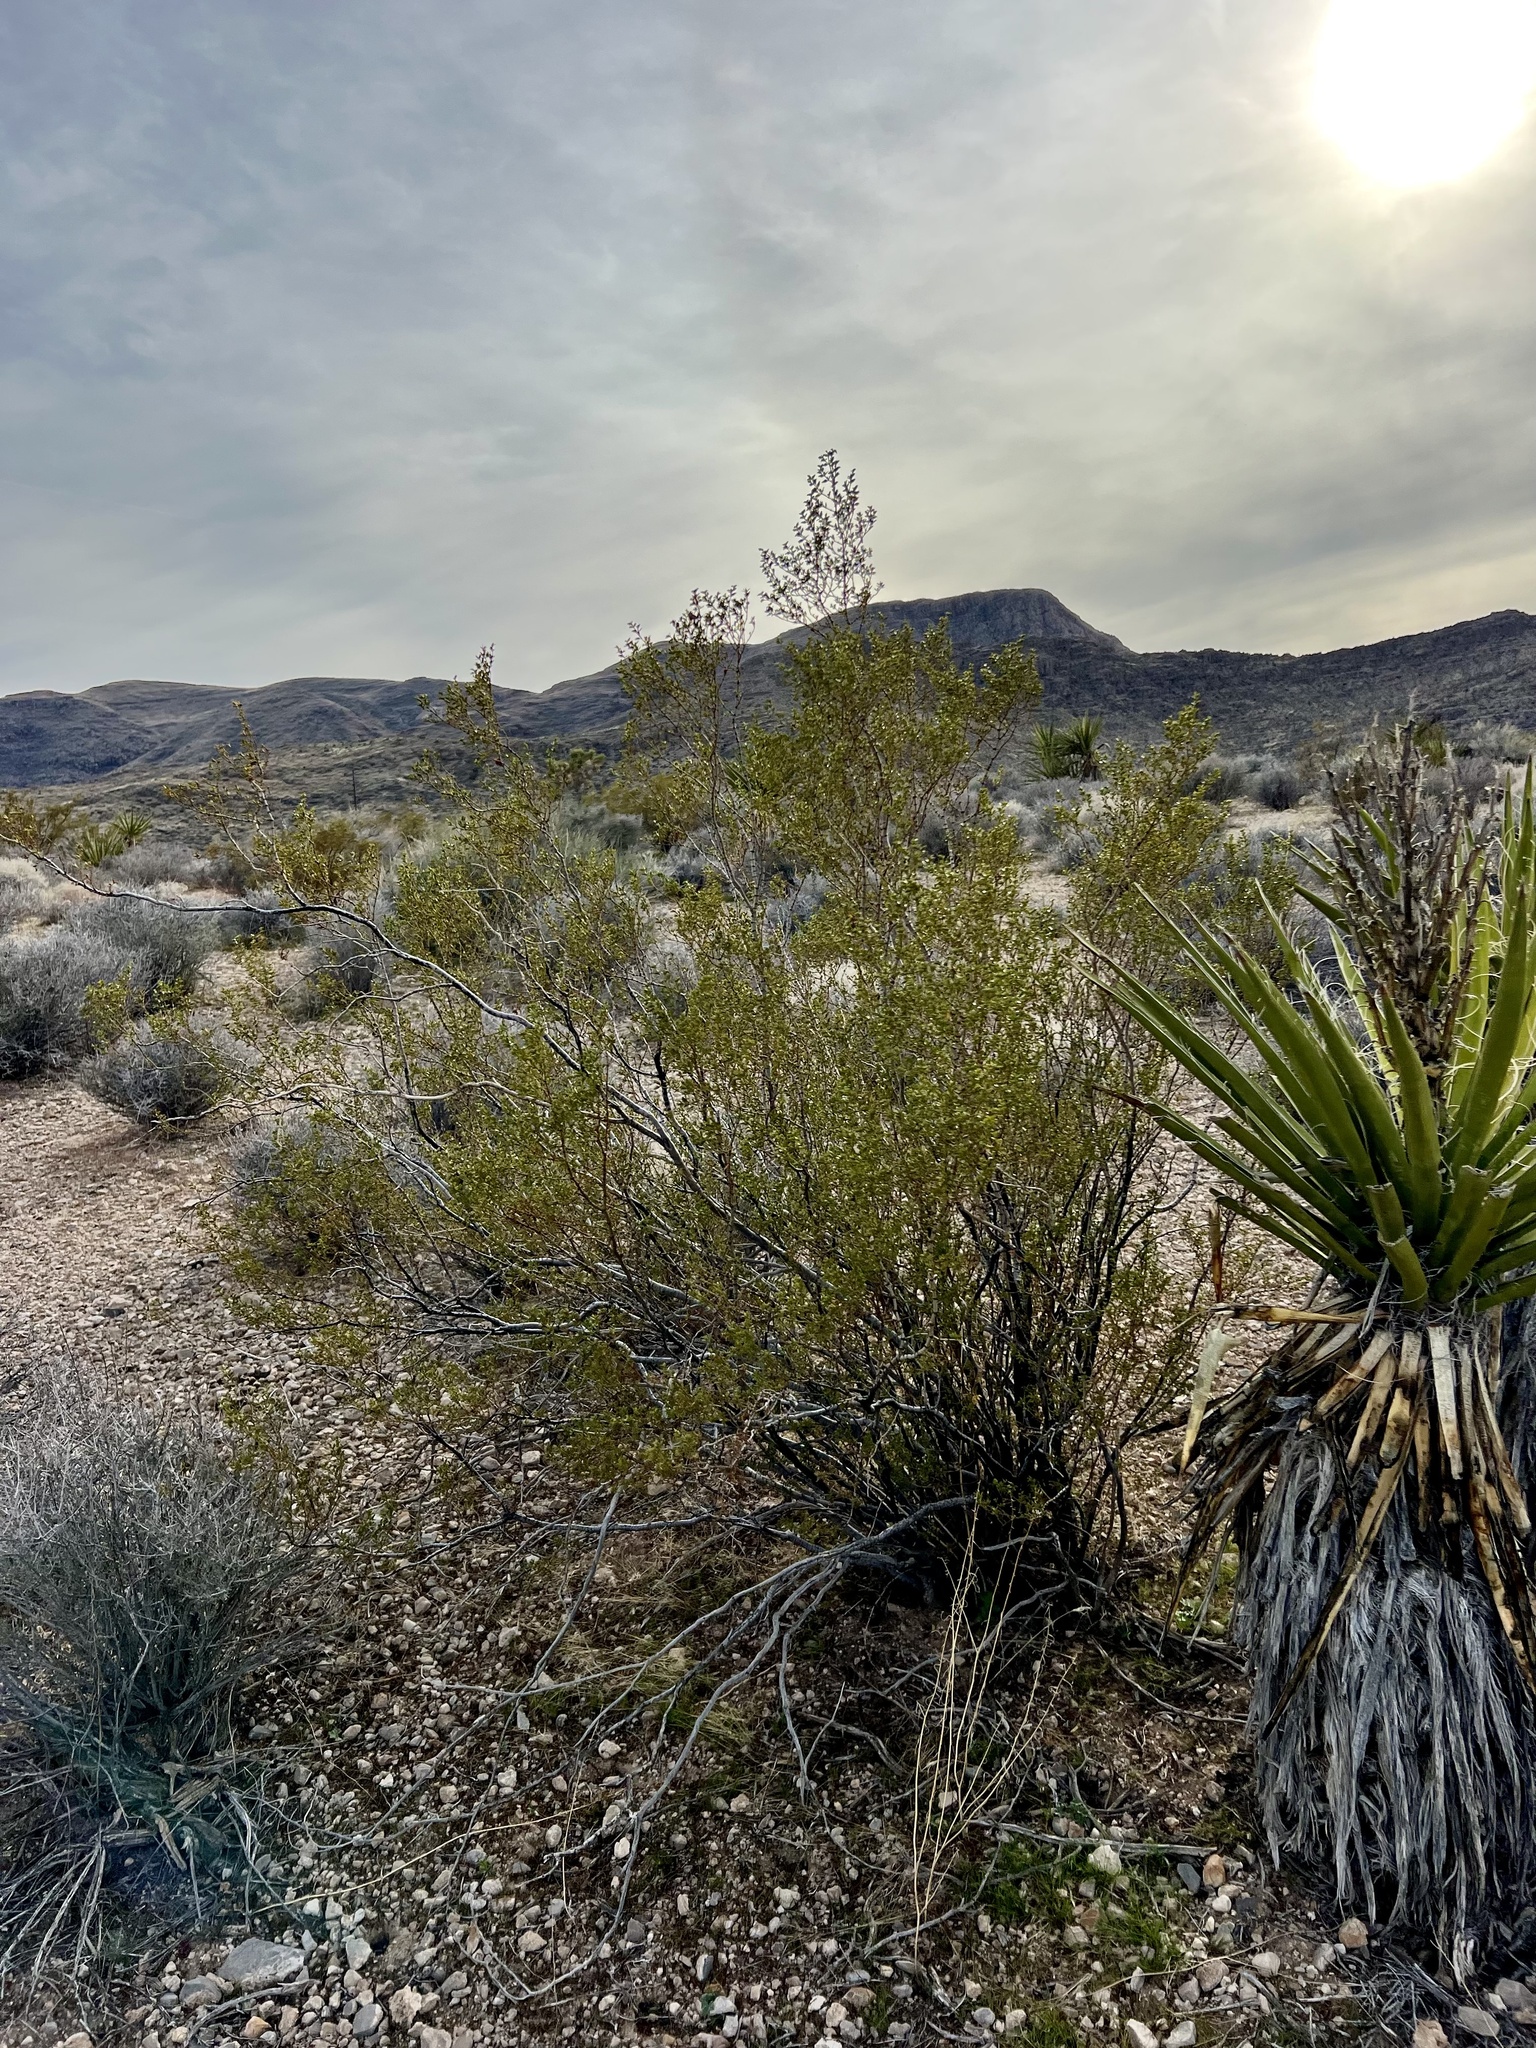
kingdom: Plantae
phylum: Tracheophyta
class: Magnoliopsida
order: Zygophyllales
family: Zygophyllaceae
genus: Larrea
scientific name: Larrea tridentata
